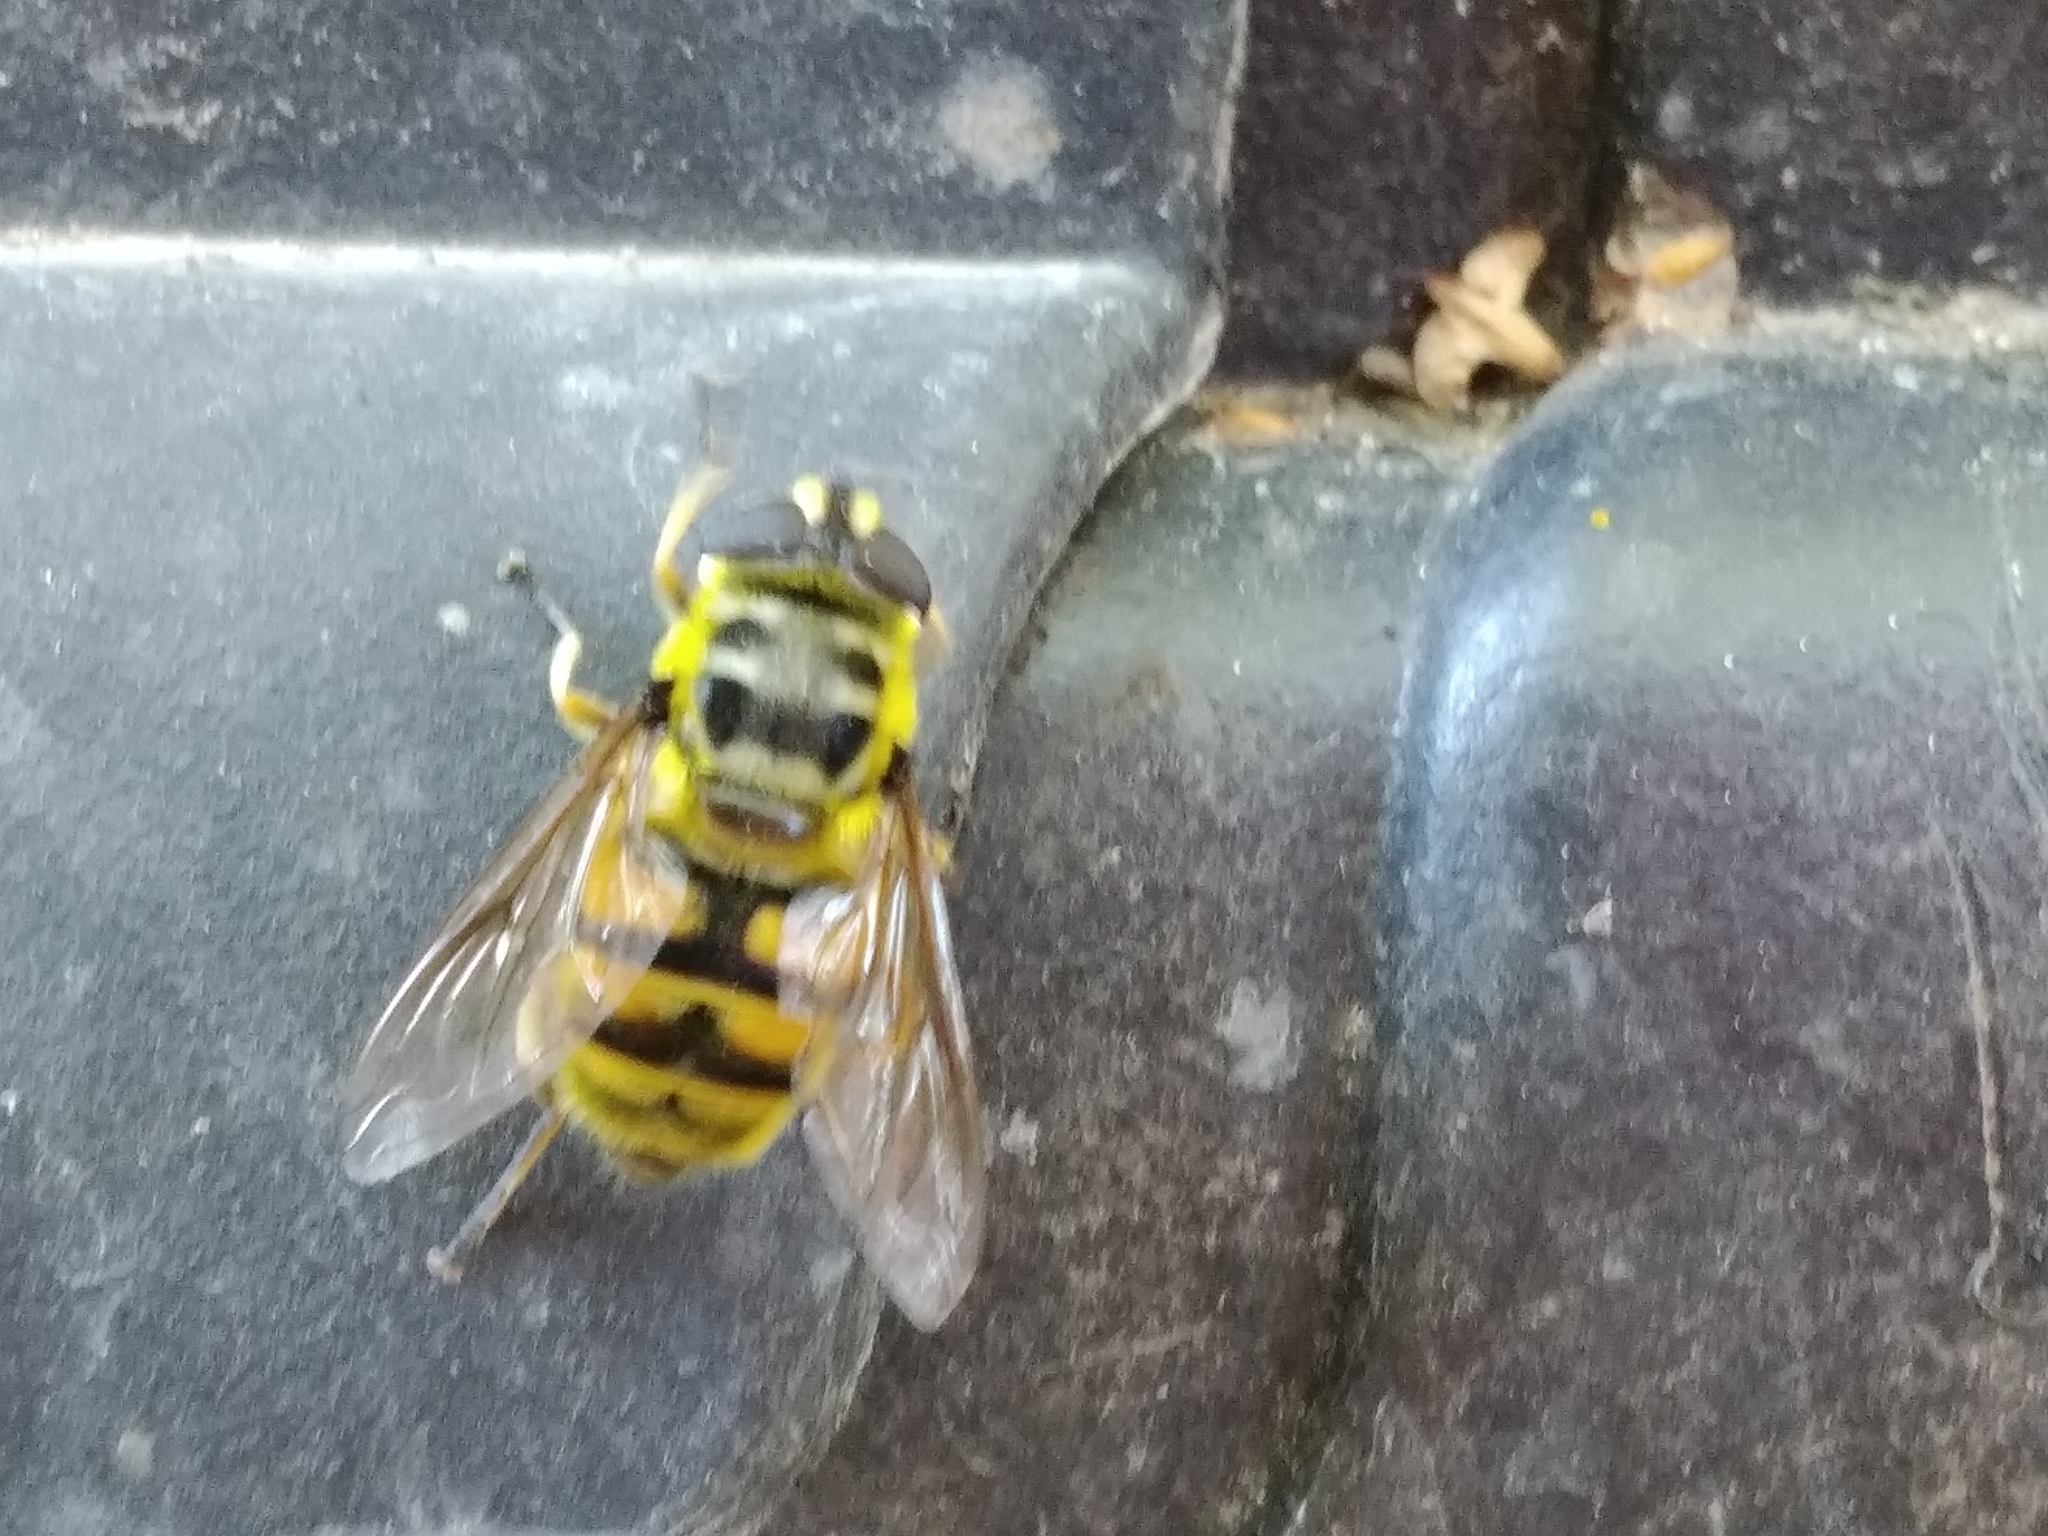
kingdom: Animalia
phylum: Arthropoda
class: Insecta
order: Diptera
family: Syrphidae
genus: Myathropa
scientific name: Myathropa florea
